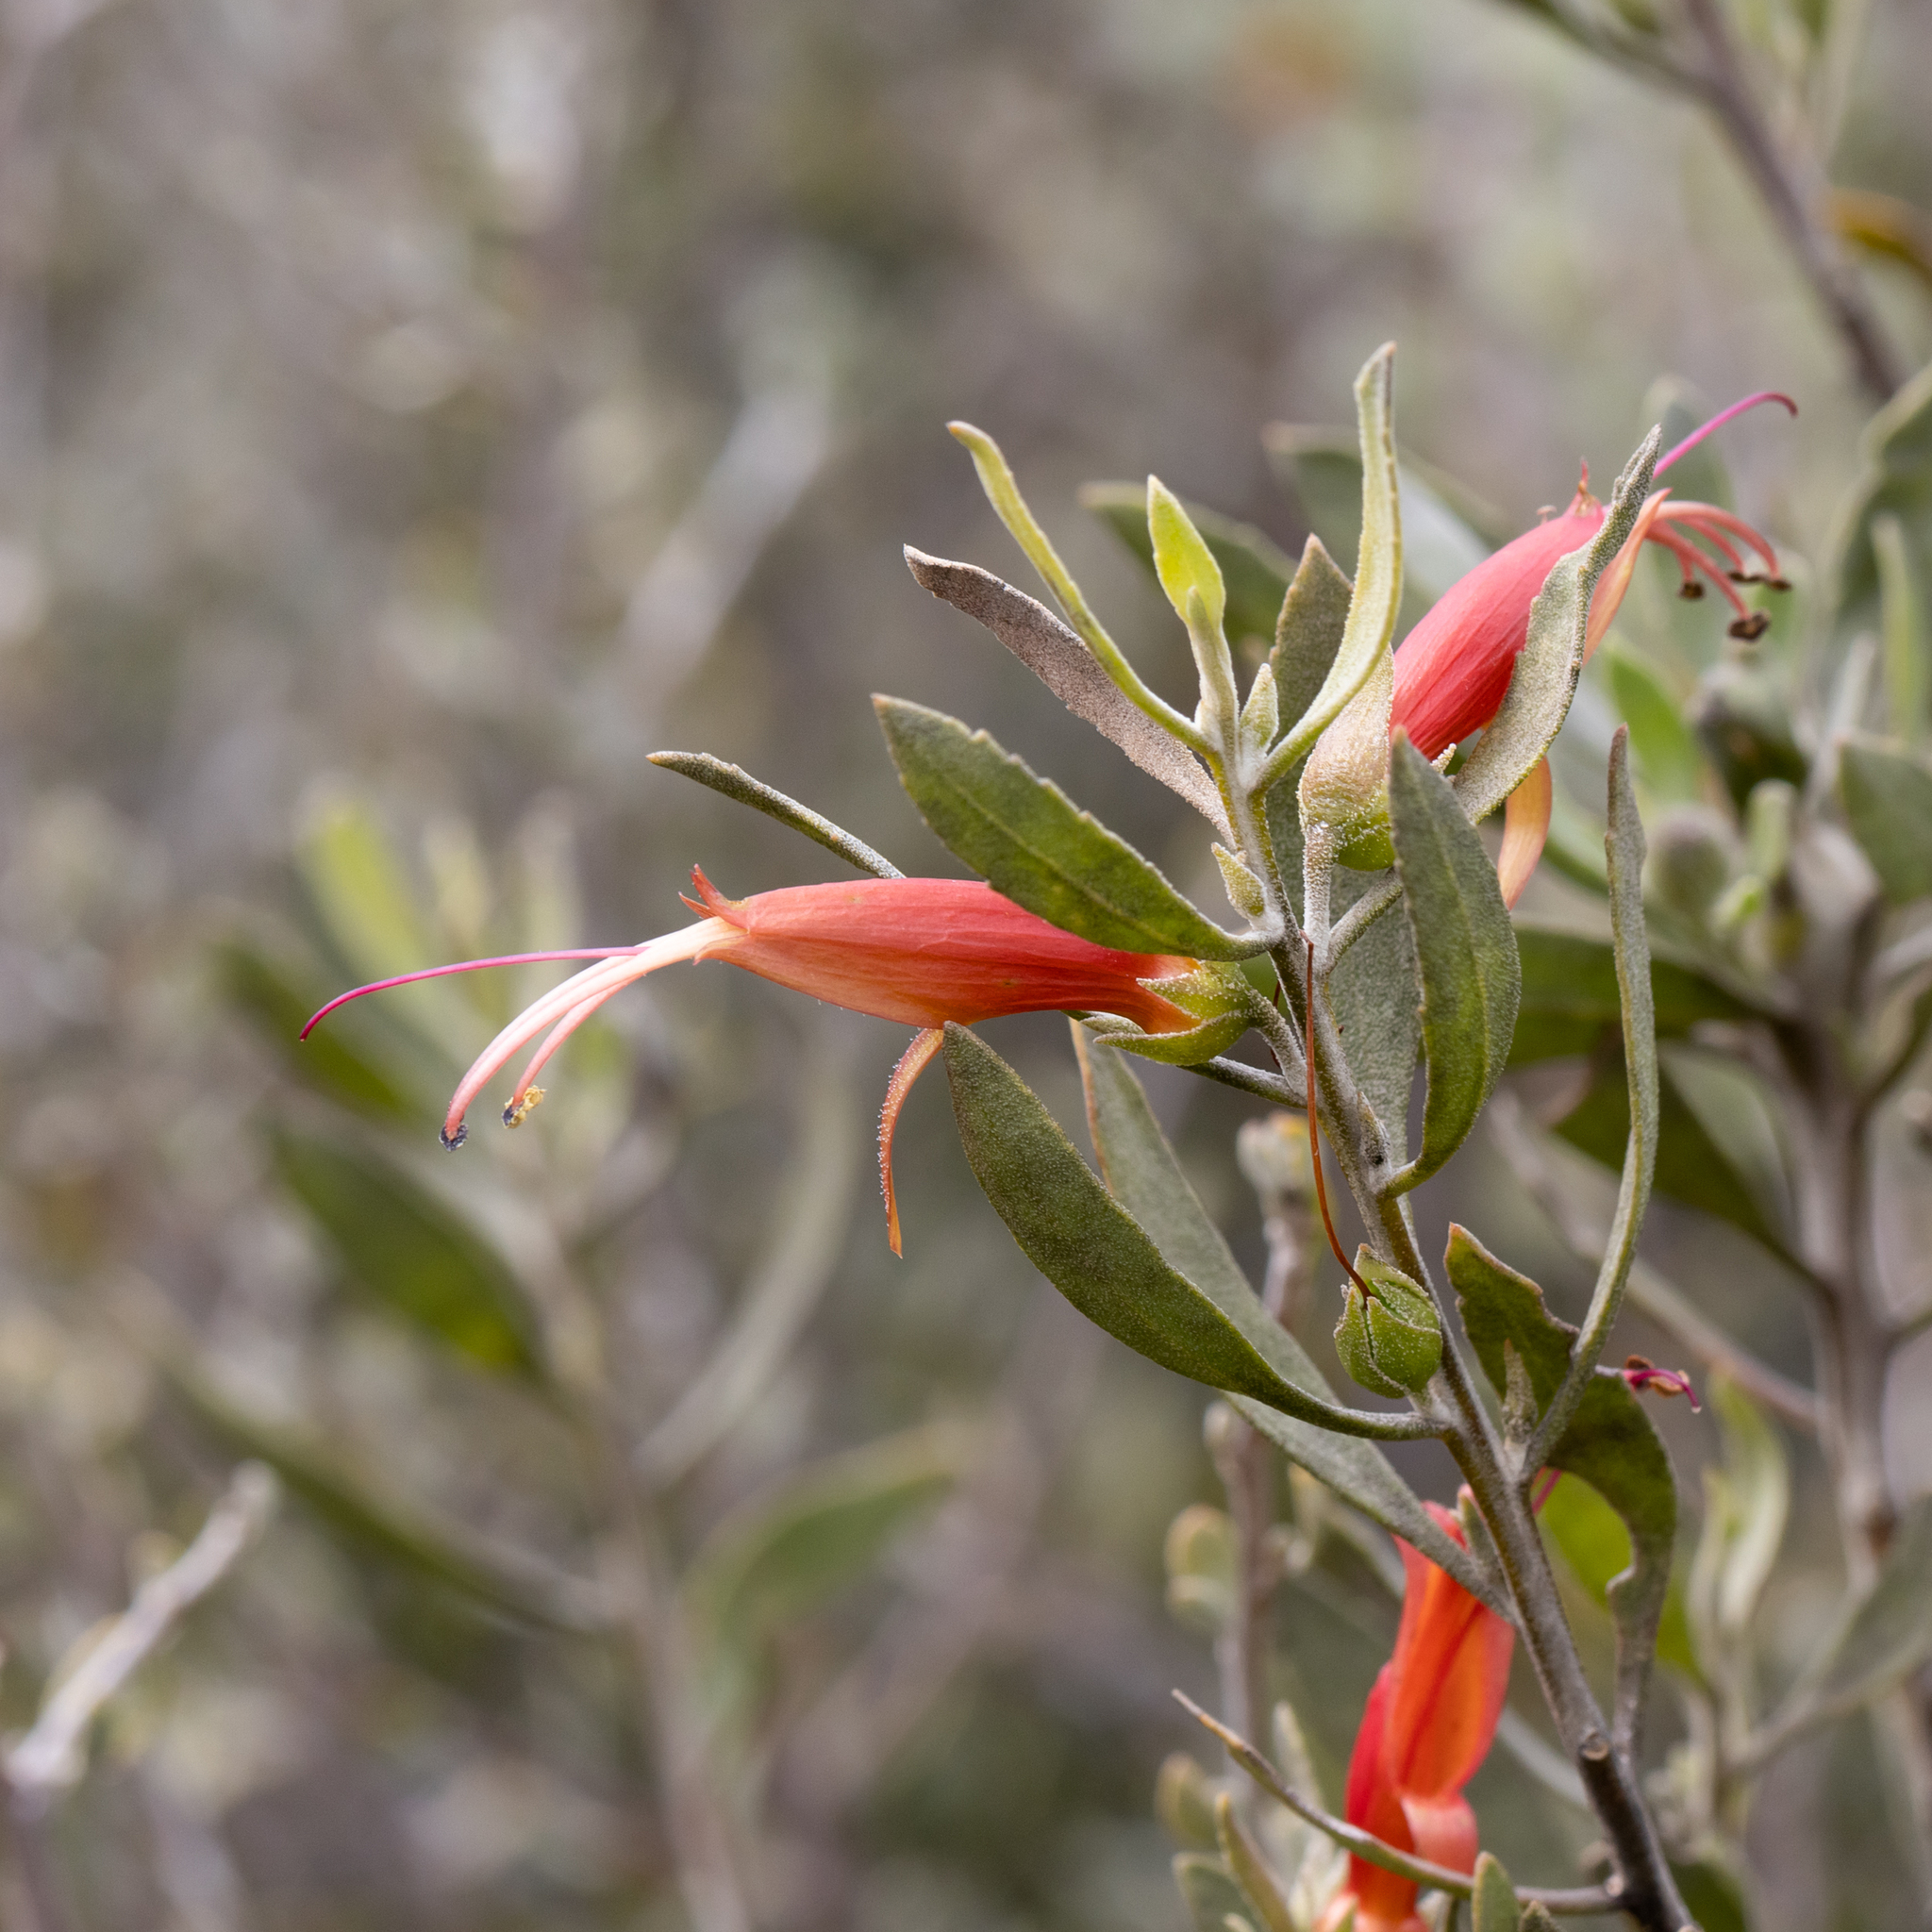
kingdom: Plantae
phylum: Tracheophyta
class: Magnoliopsida
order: Lamiales
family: Scrophulariaceae
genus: Eremophila
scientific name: Eremophila glabra
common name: Black-fuchsia
